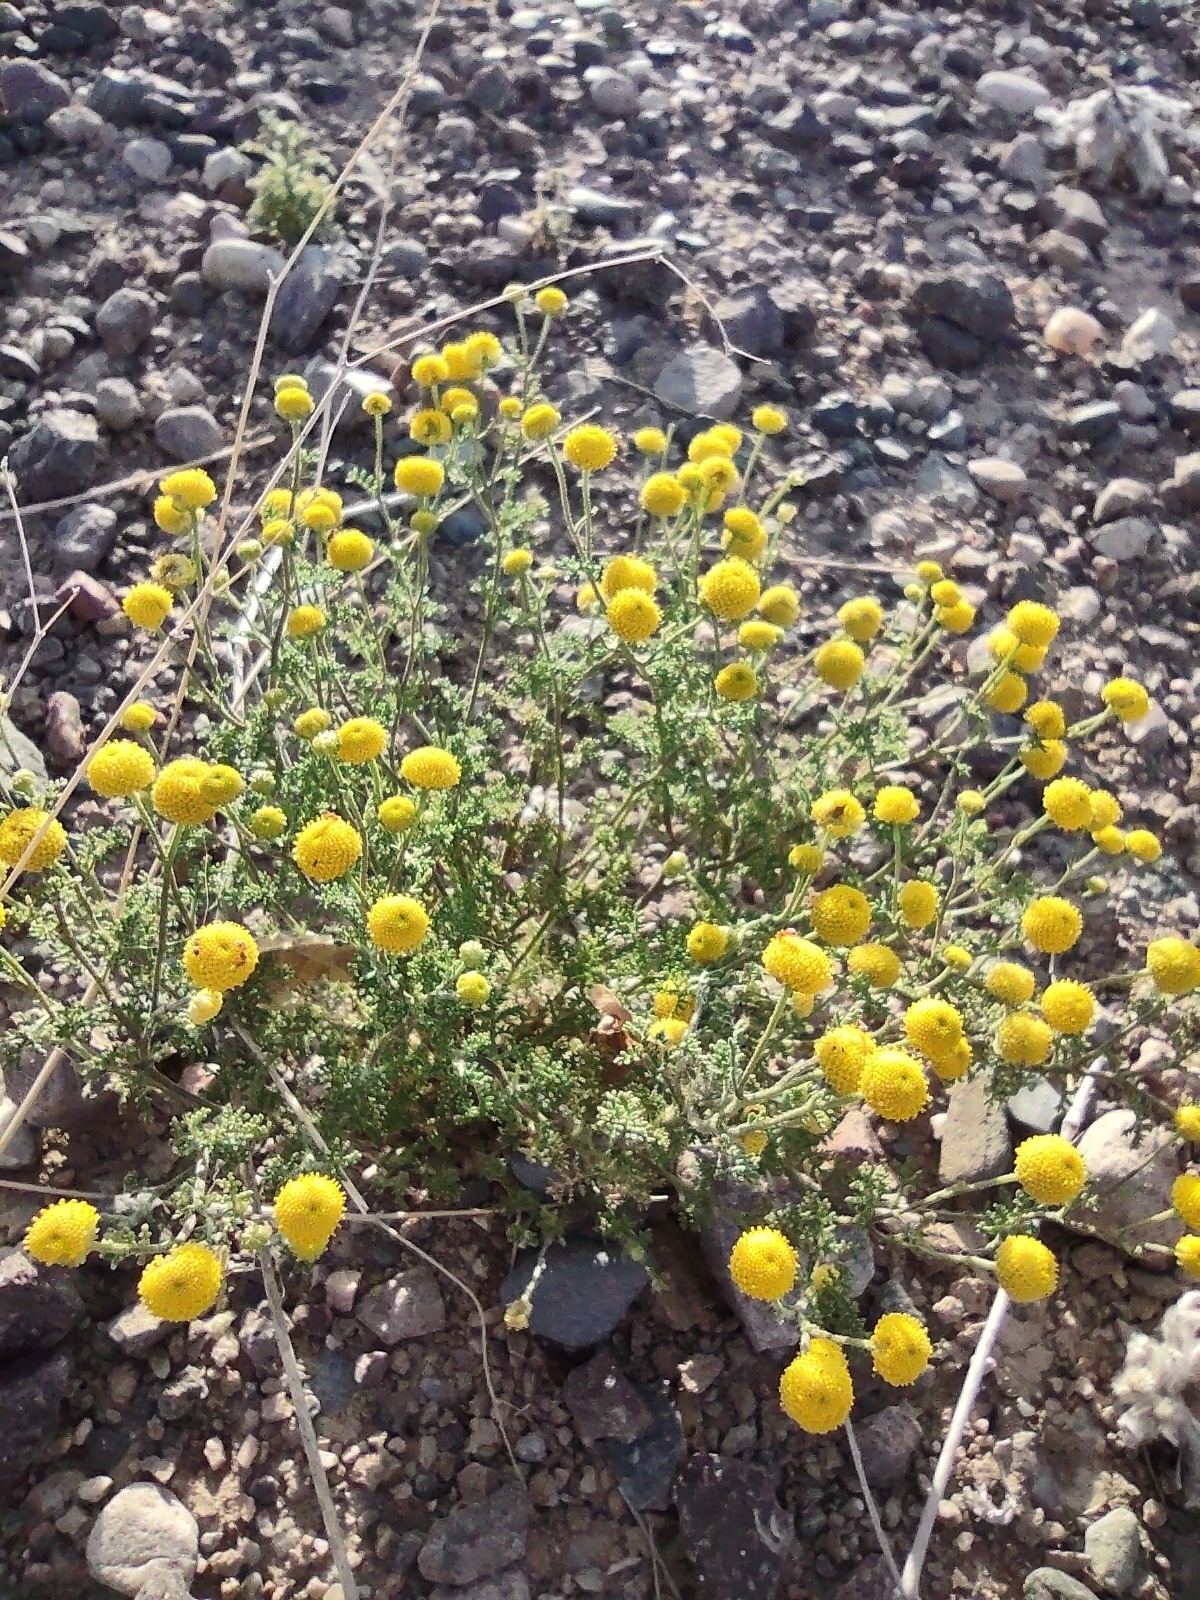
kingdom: Plantae
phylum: Tracheophyta
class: Magnoliopsida
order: Asterales
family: Asteraceae
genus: Oncosiphon
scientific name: Oncosiphon pilulifer
